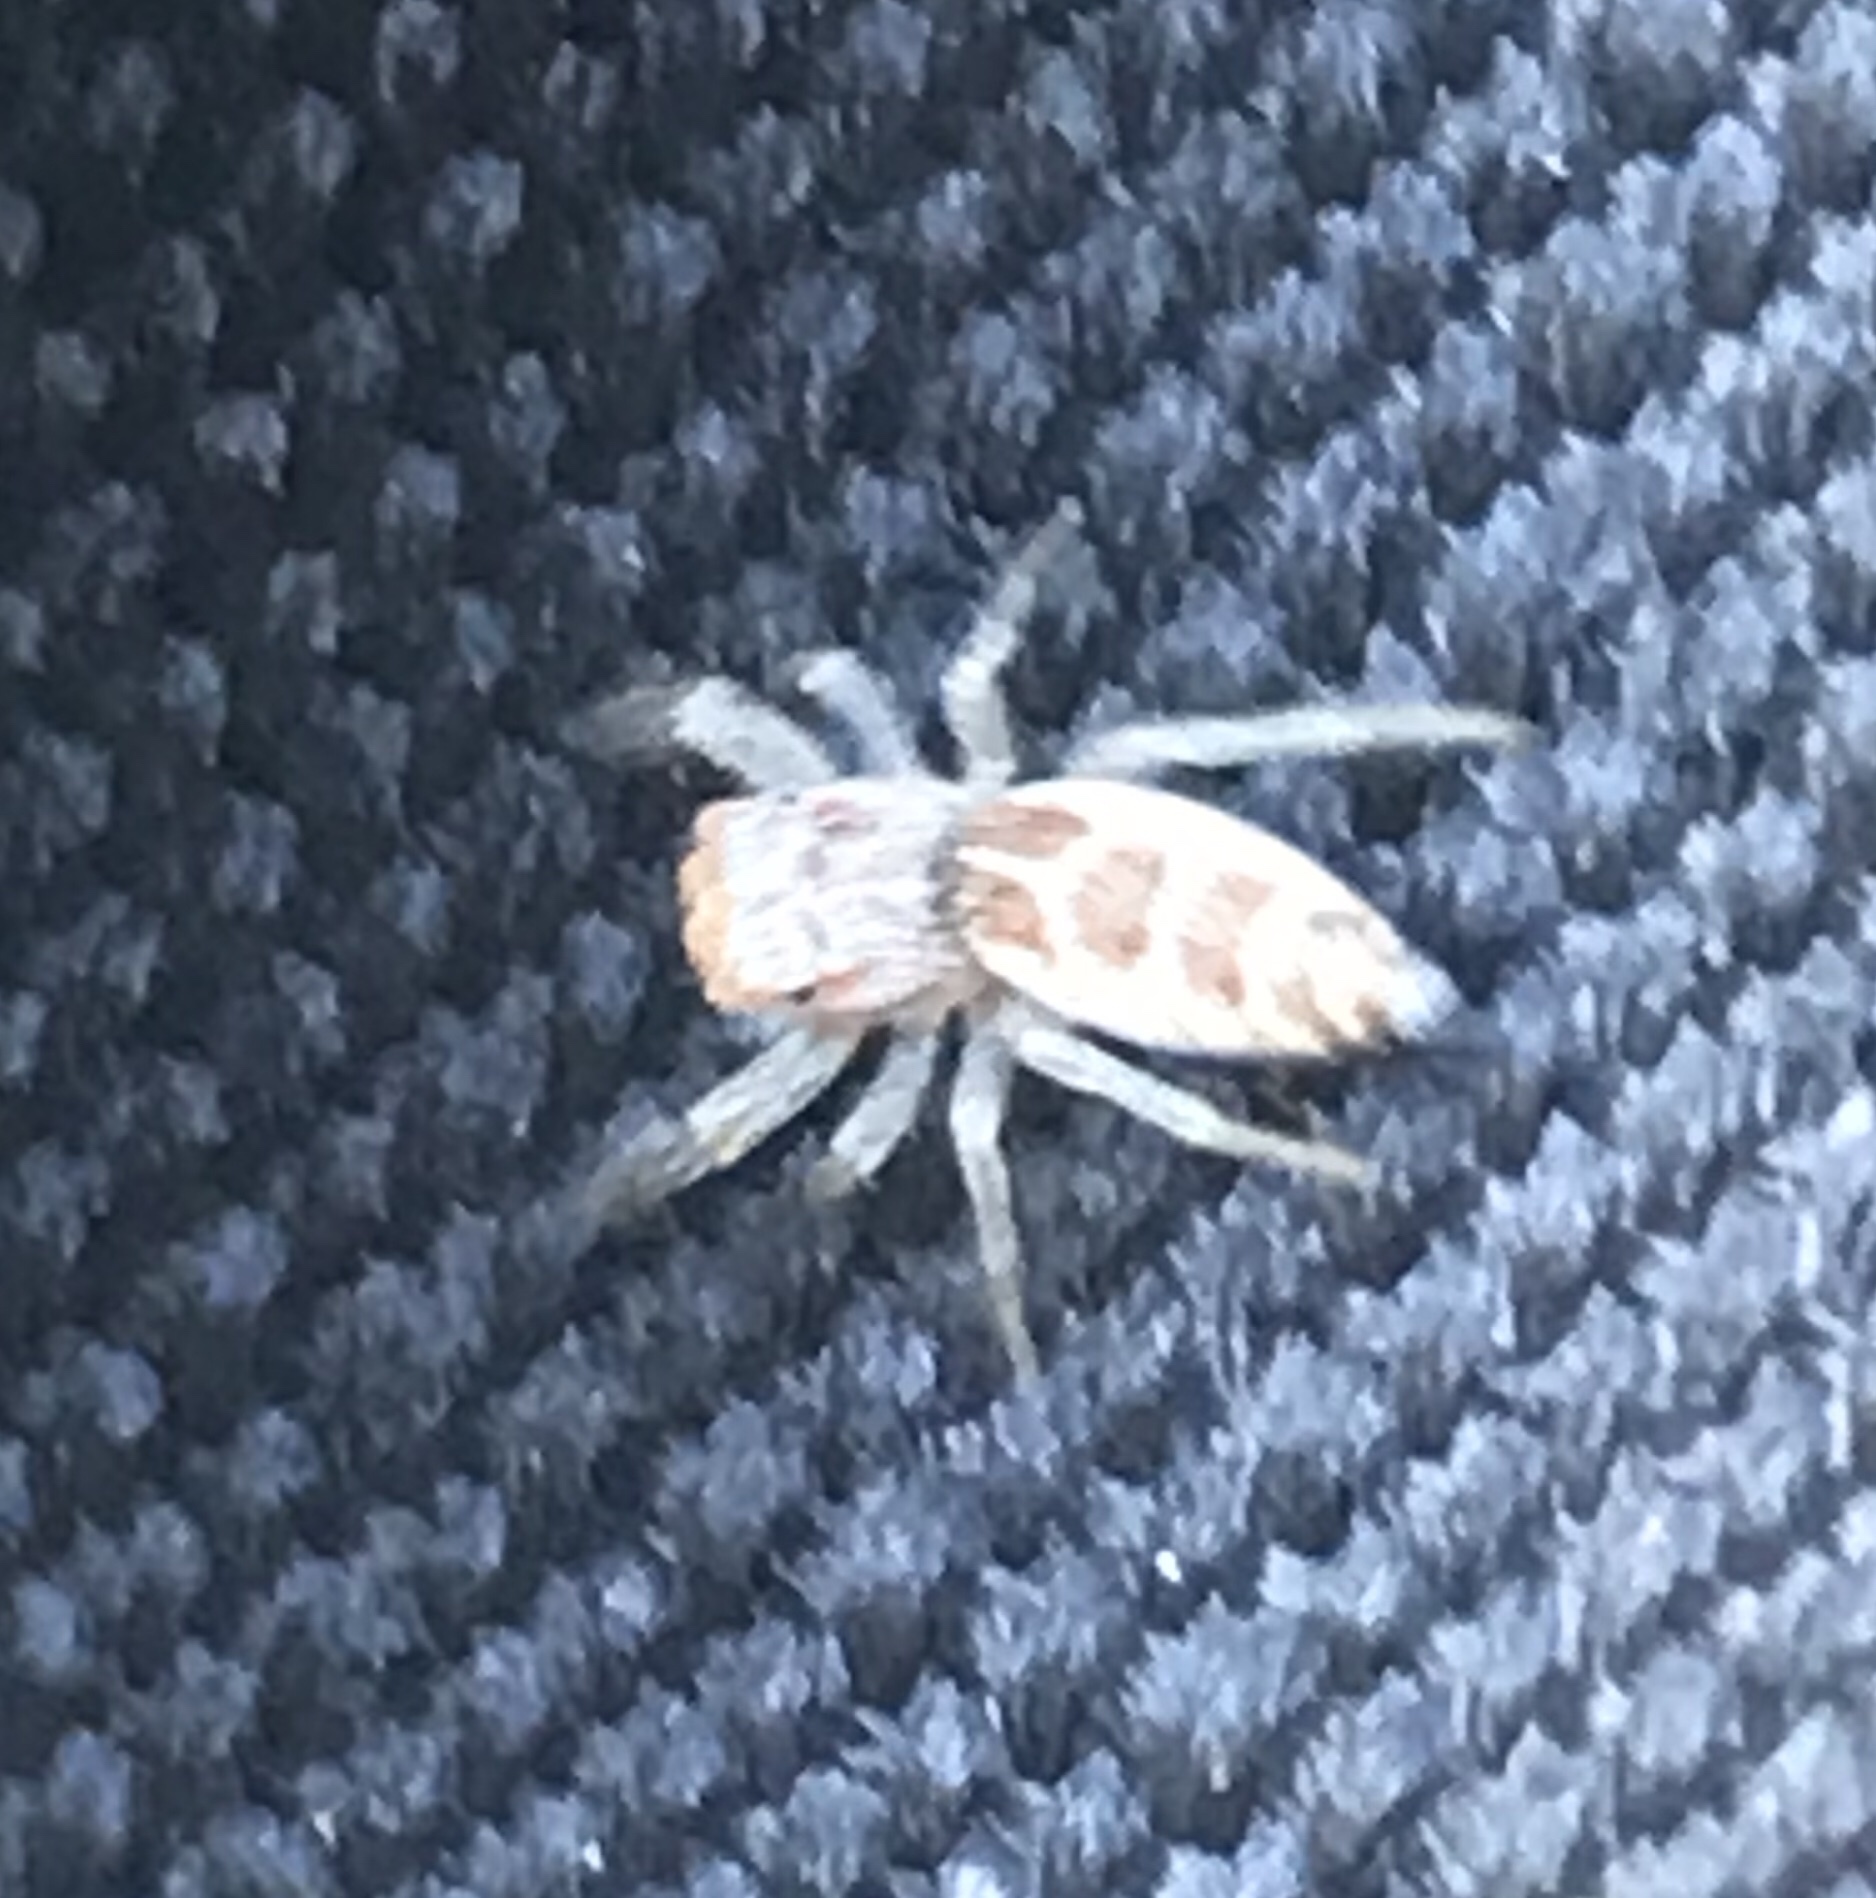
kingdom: Animalia
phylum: Arthropoda
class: Arachnida
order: Araneae
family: Salticidae
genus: Hentzia
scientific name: Hentzia mitrata
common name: White-jawed jumping spider
